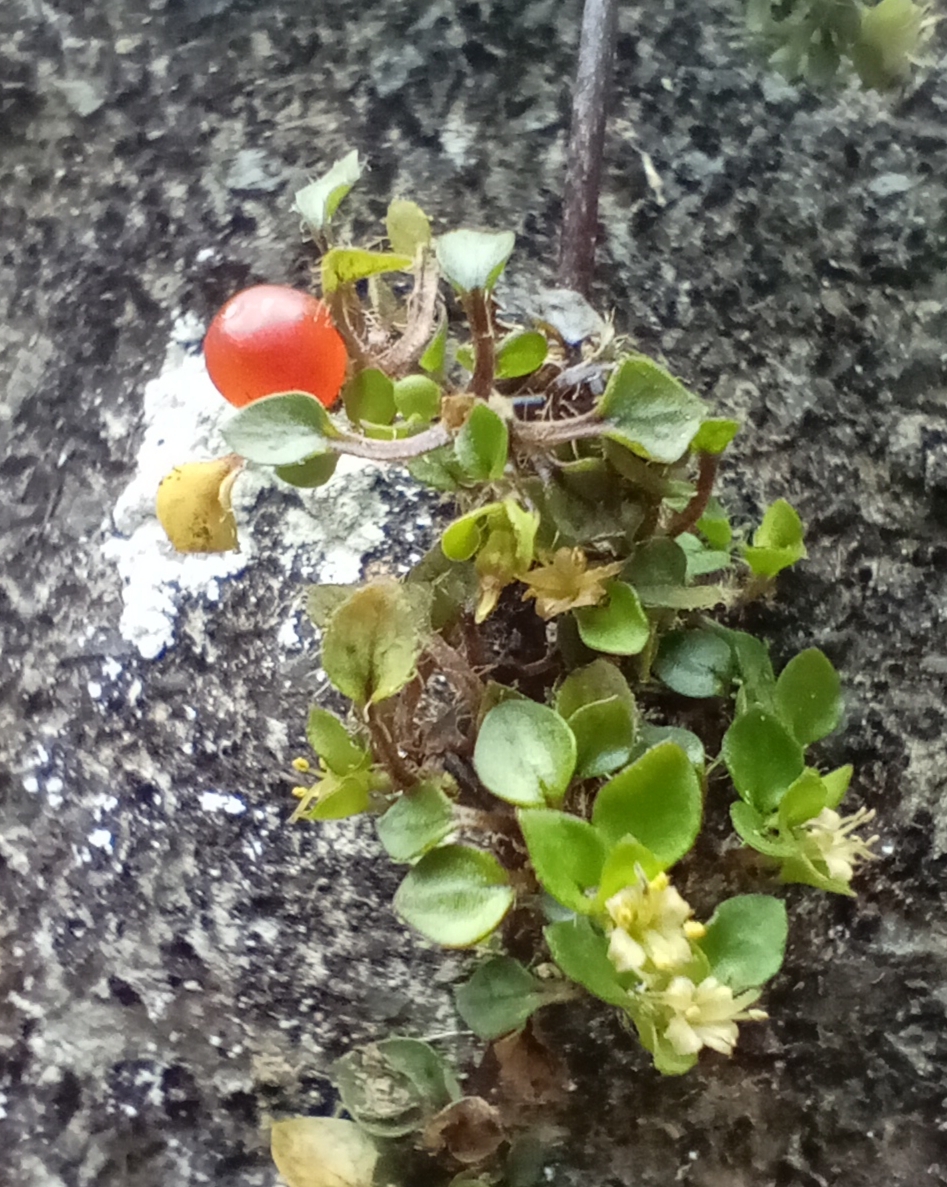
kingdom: Plantae
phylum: Tracheophyta
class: Magnoliopsida
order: Gentianales
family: Rubiaceae
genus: Nertera
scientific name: Nertera ciliata
